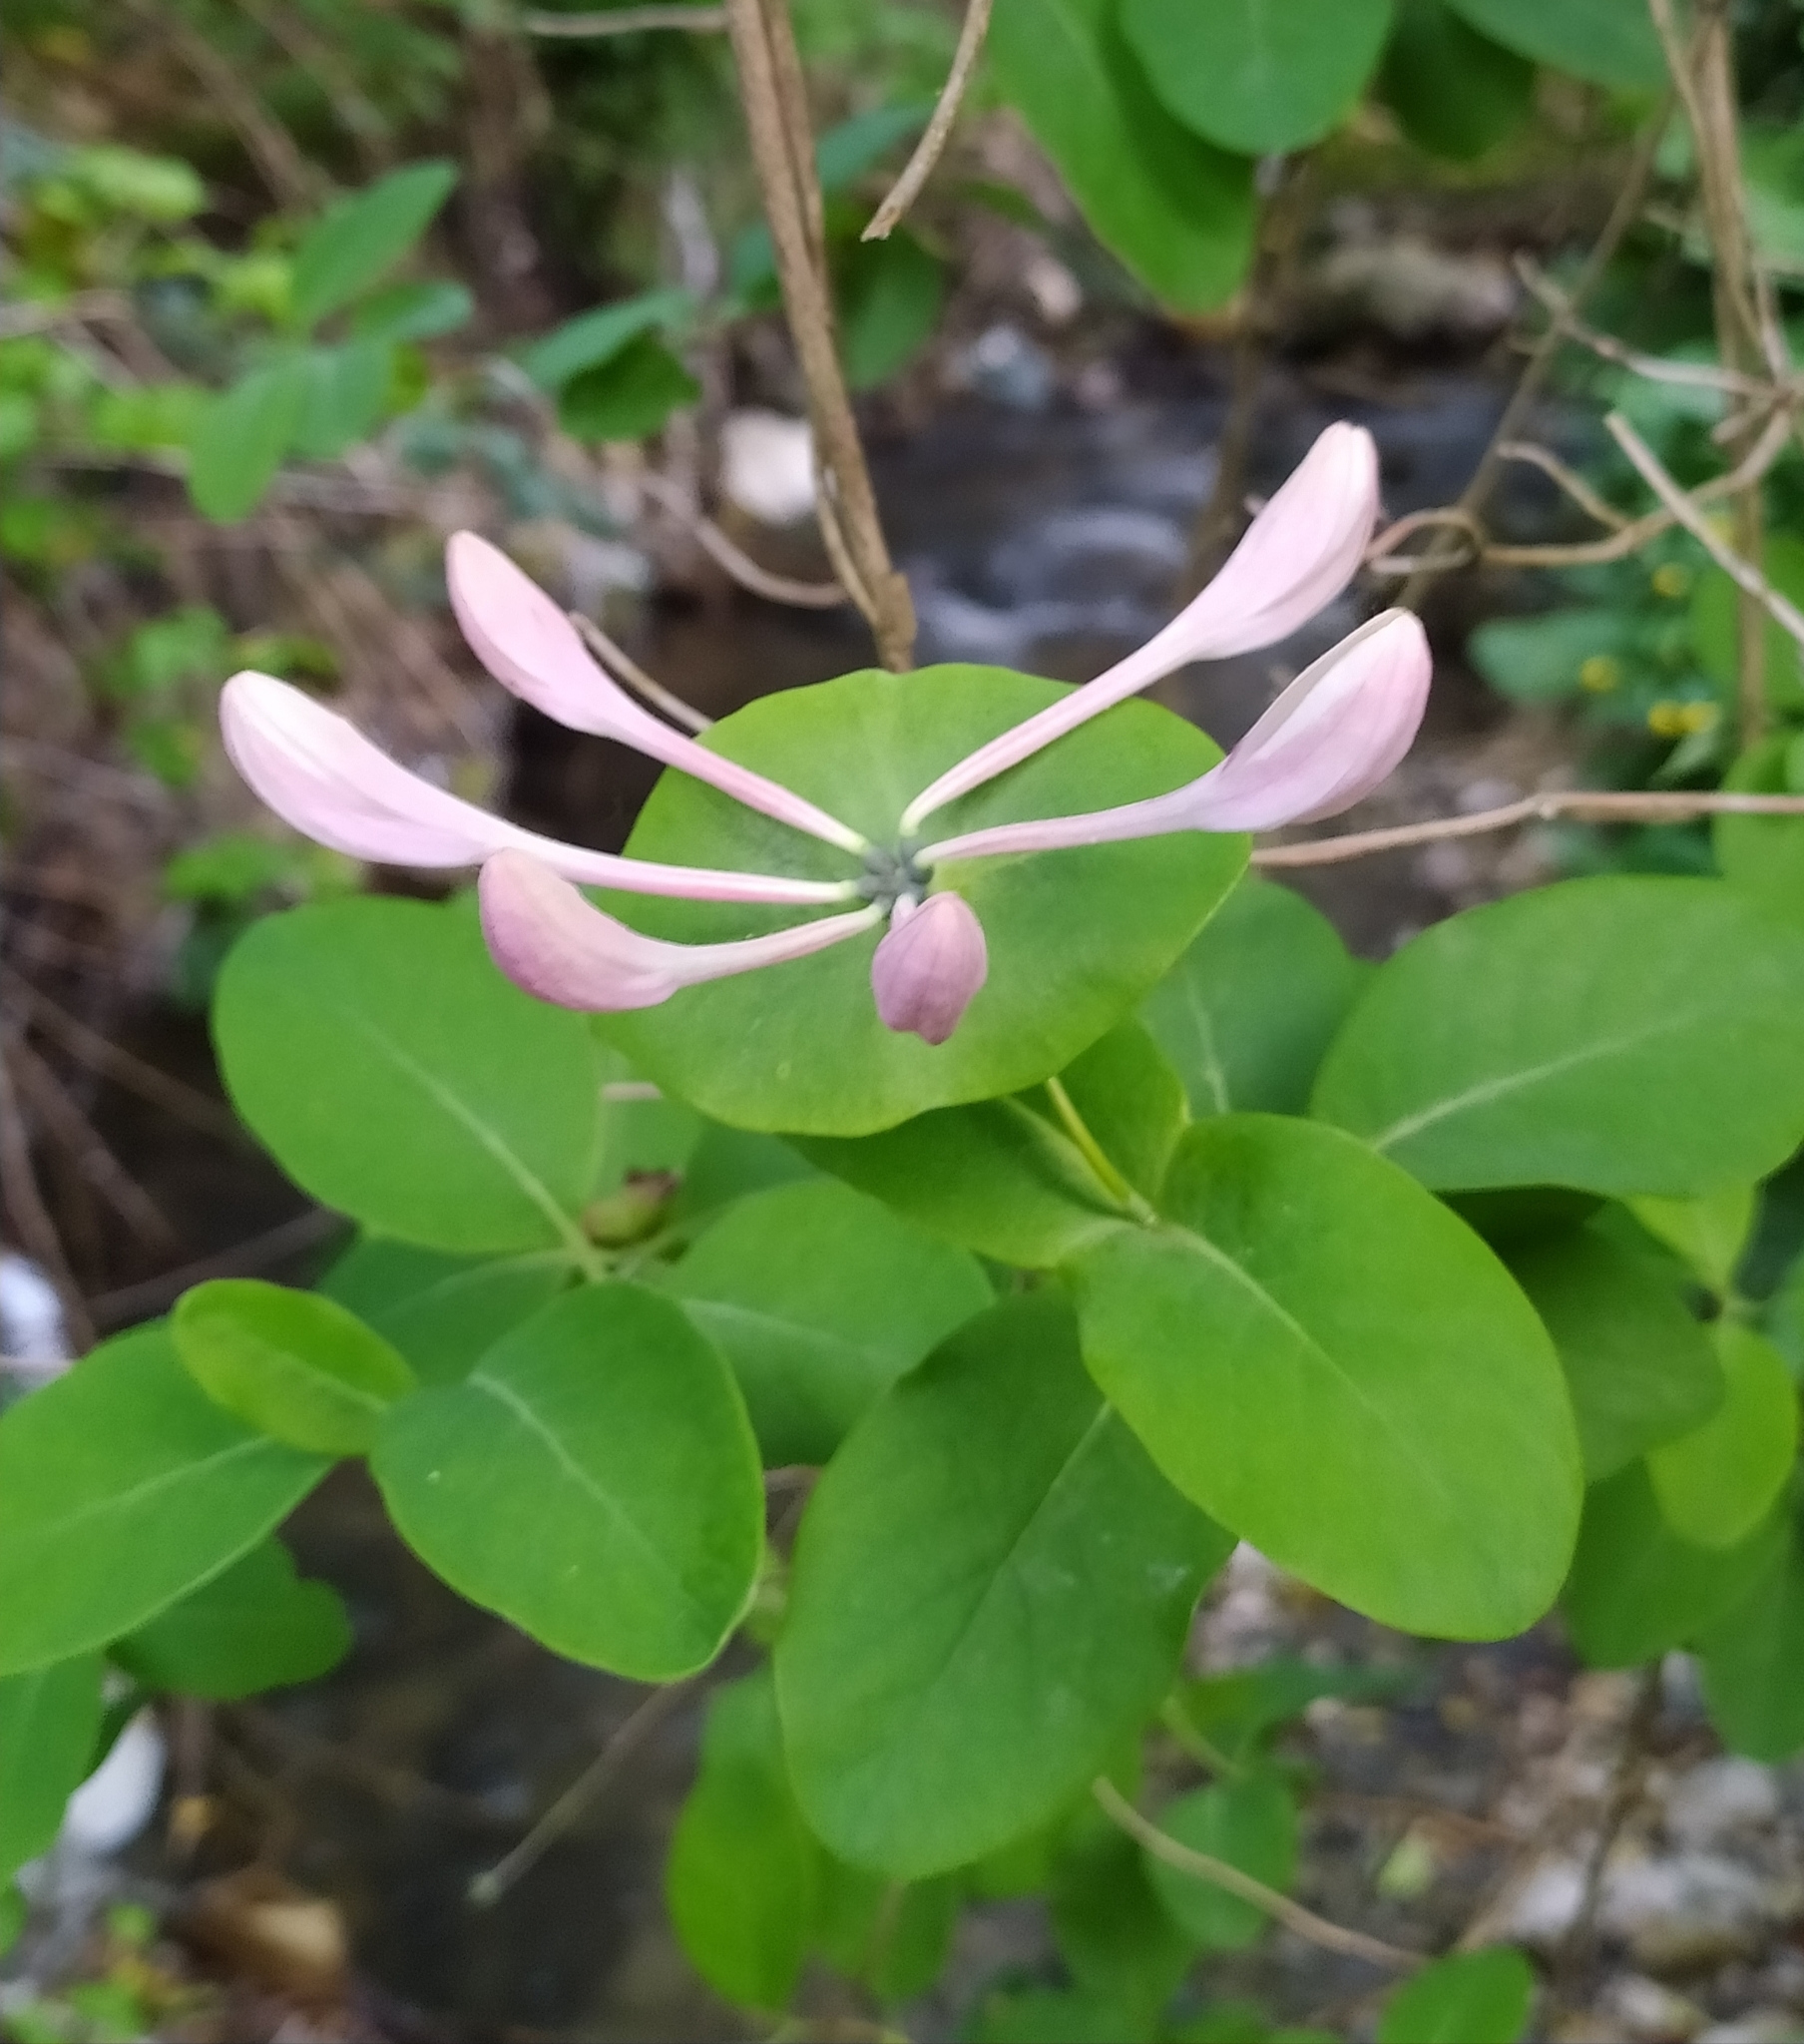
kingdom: Plantae
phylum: Tracheophyta
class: Magnoliopsida
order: Dipsacales
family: Caprifoliaceae
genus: Lonicera
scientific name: Lonicera caprifolium
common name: Perfoliate honeysuckle
